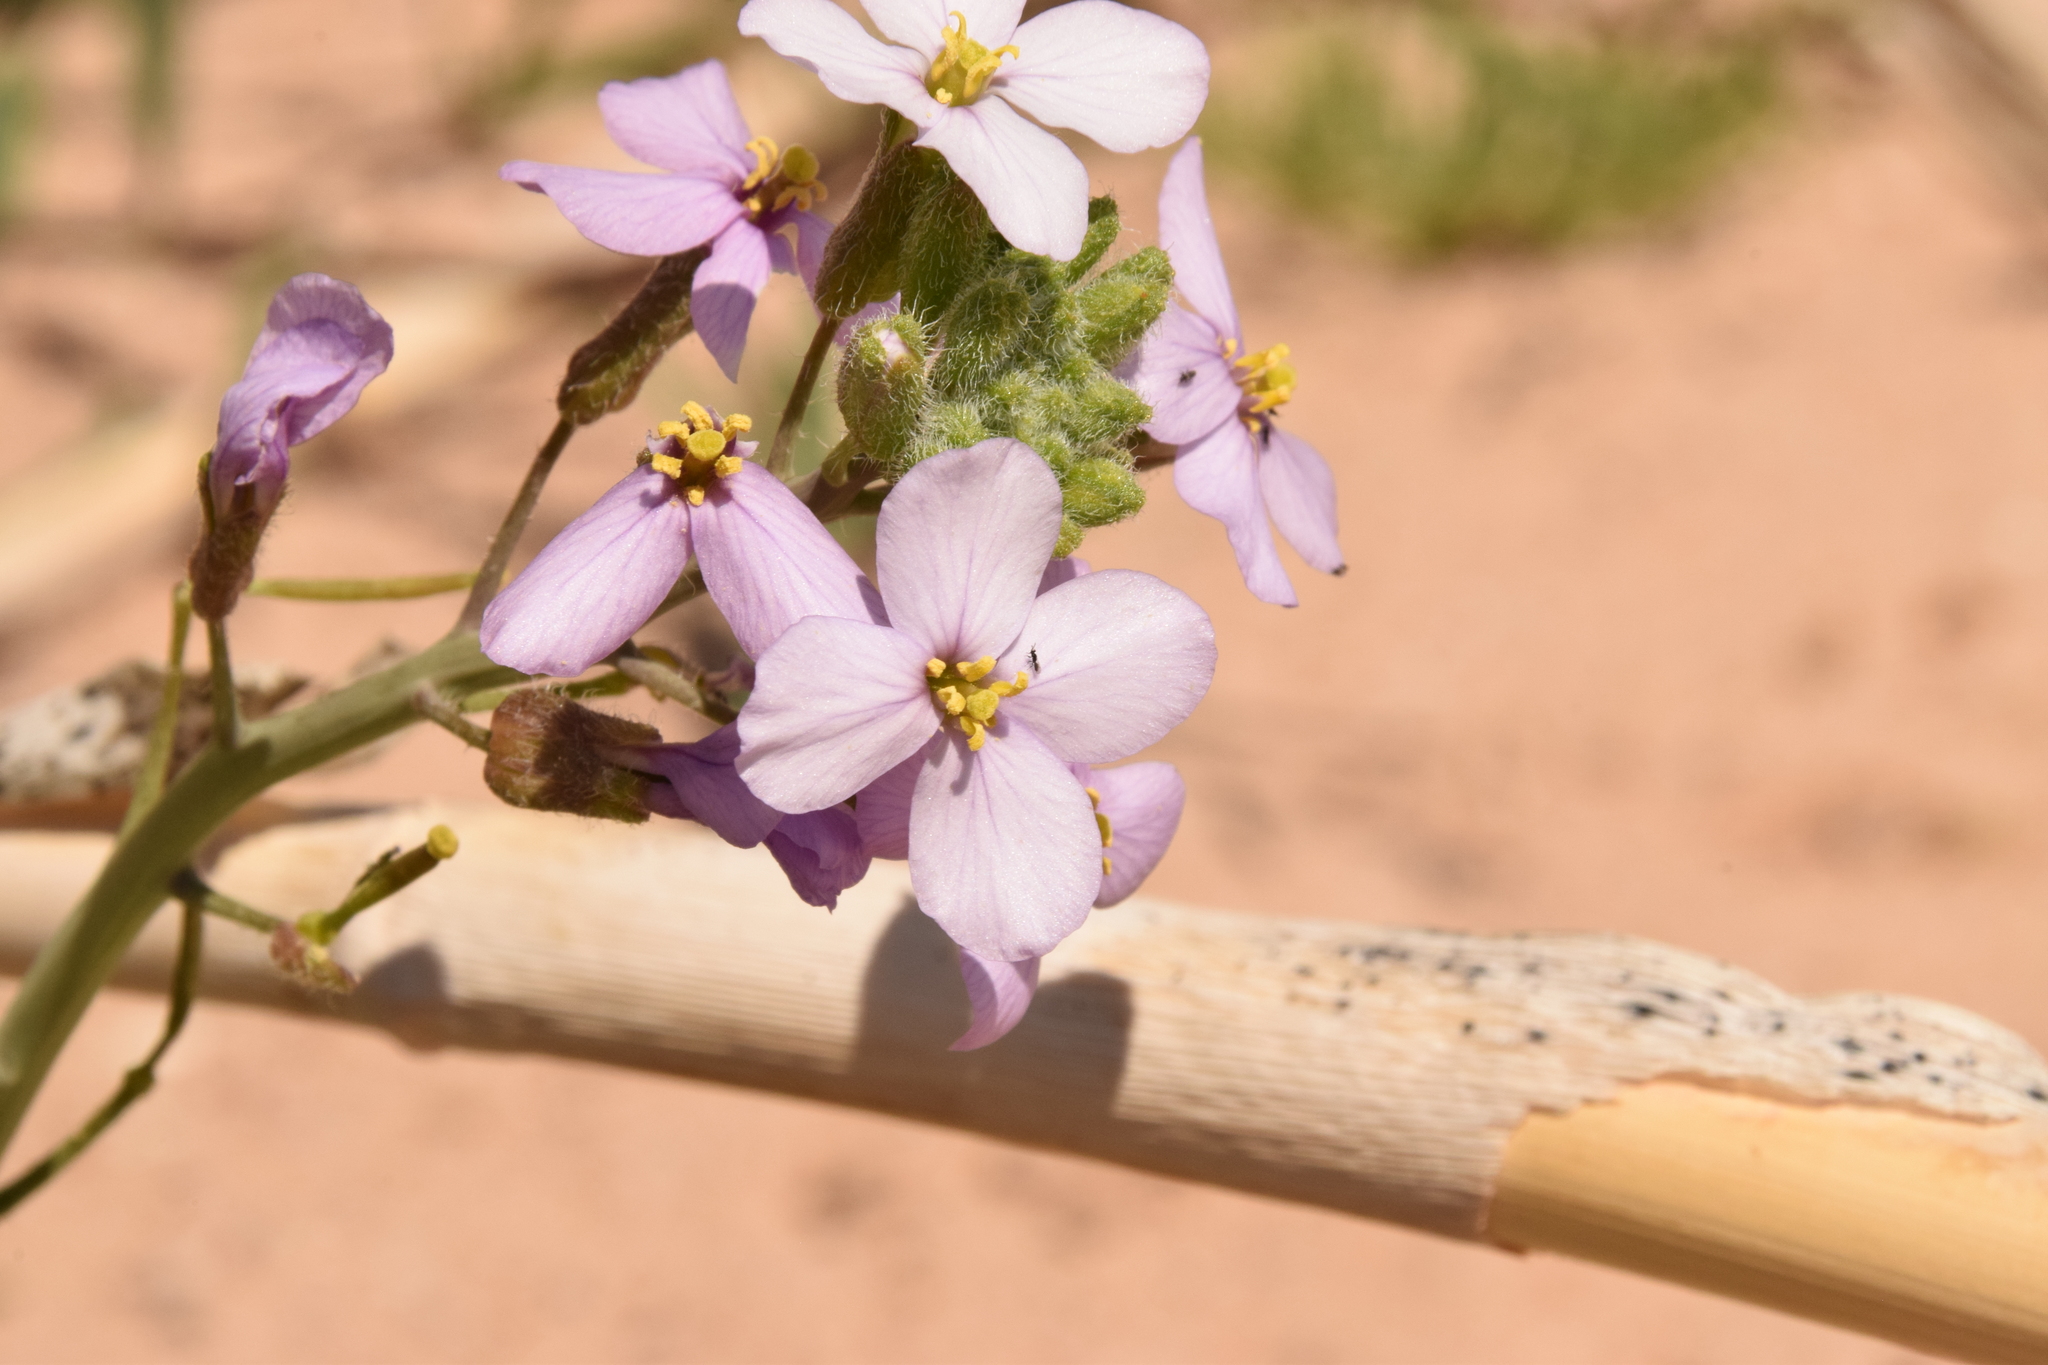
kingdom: Plantae
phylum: Tracheophyta
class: Magnoliopsida
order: Brassicales
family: Brassicaceae
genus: Diplotaxis
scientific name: Diplotaxis acris
